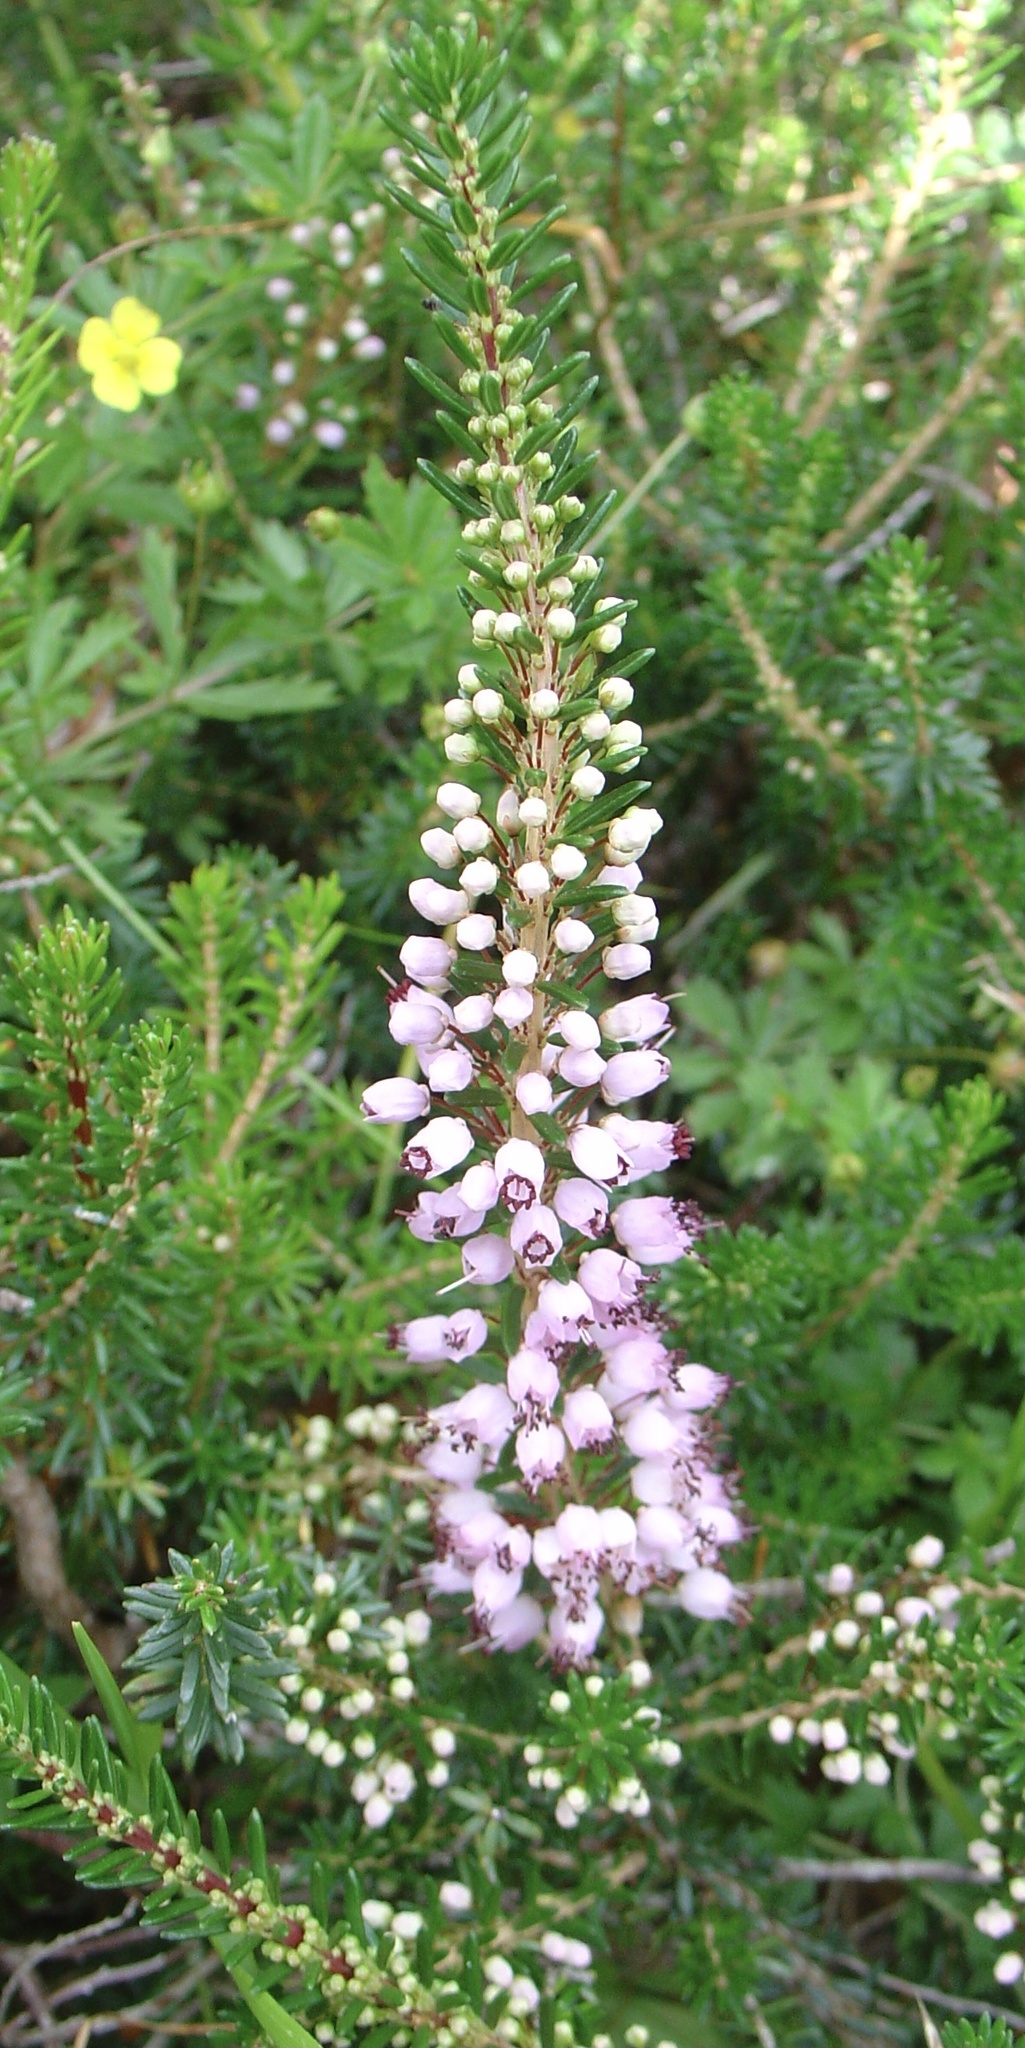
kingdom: Plantae
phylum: Tracheophyta
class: Magnoliopsida
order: Ericales
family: Ericaceae
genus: Erica
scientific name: Erica vagans
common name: Cornish heath
